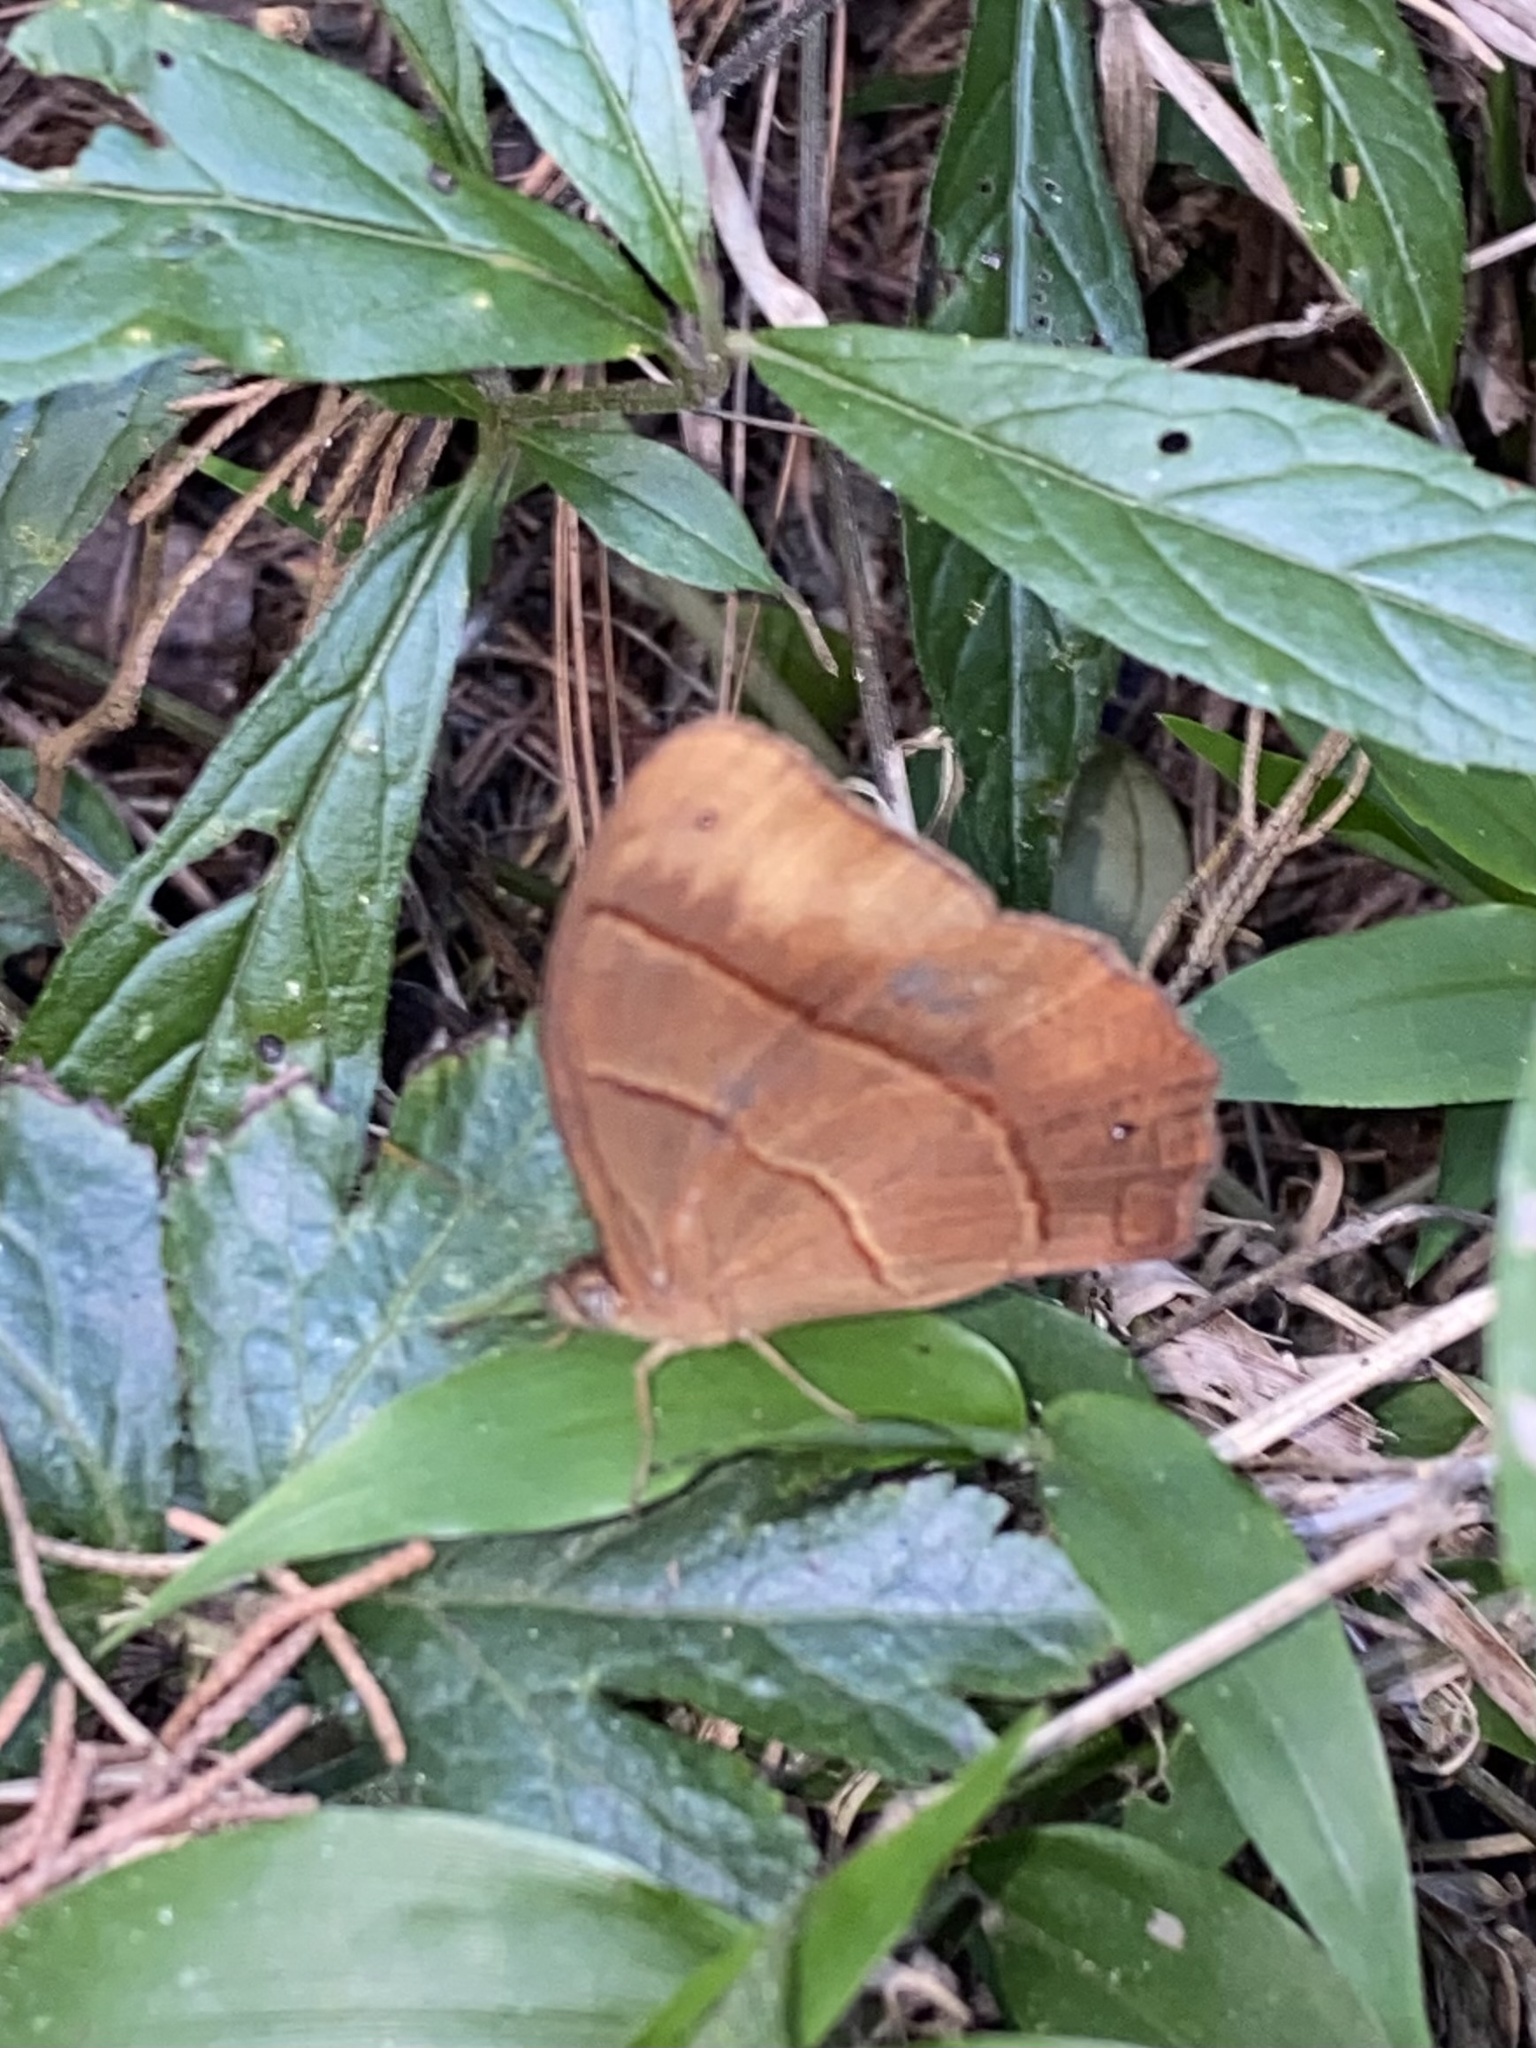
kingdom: Animalia
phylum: Arthropoda
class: Insecta
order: Lepidoptera
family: Nymphalidae
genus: Satyrotaygetis
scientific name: Satyrotaygetis satyrina
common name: Wide-bordered satyr
